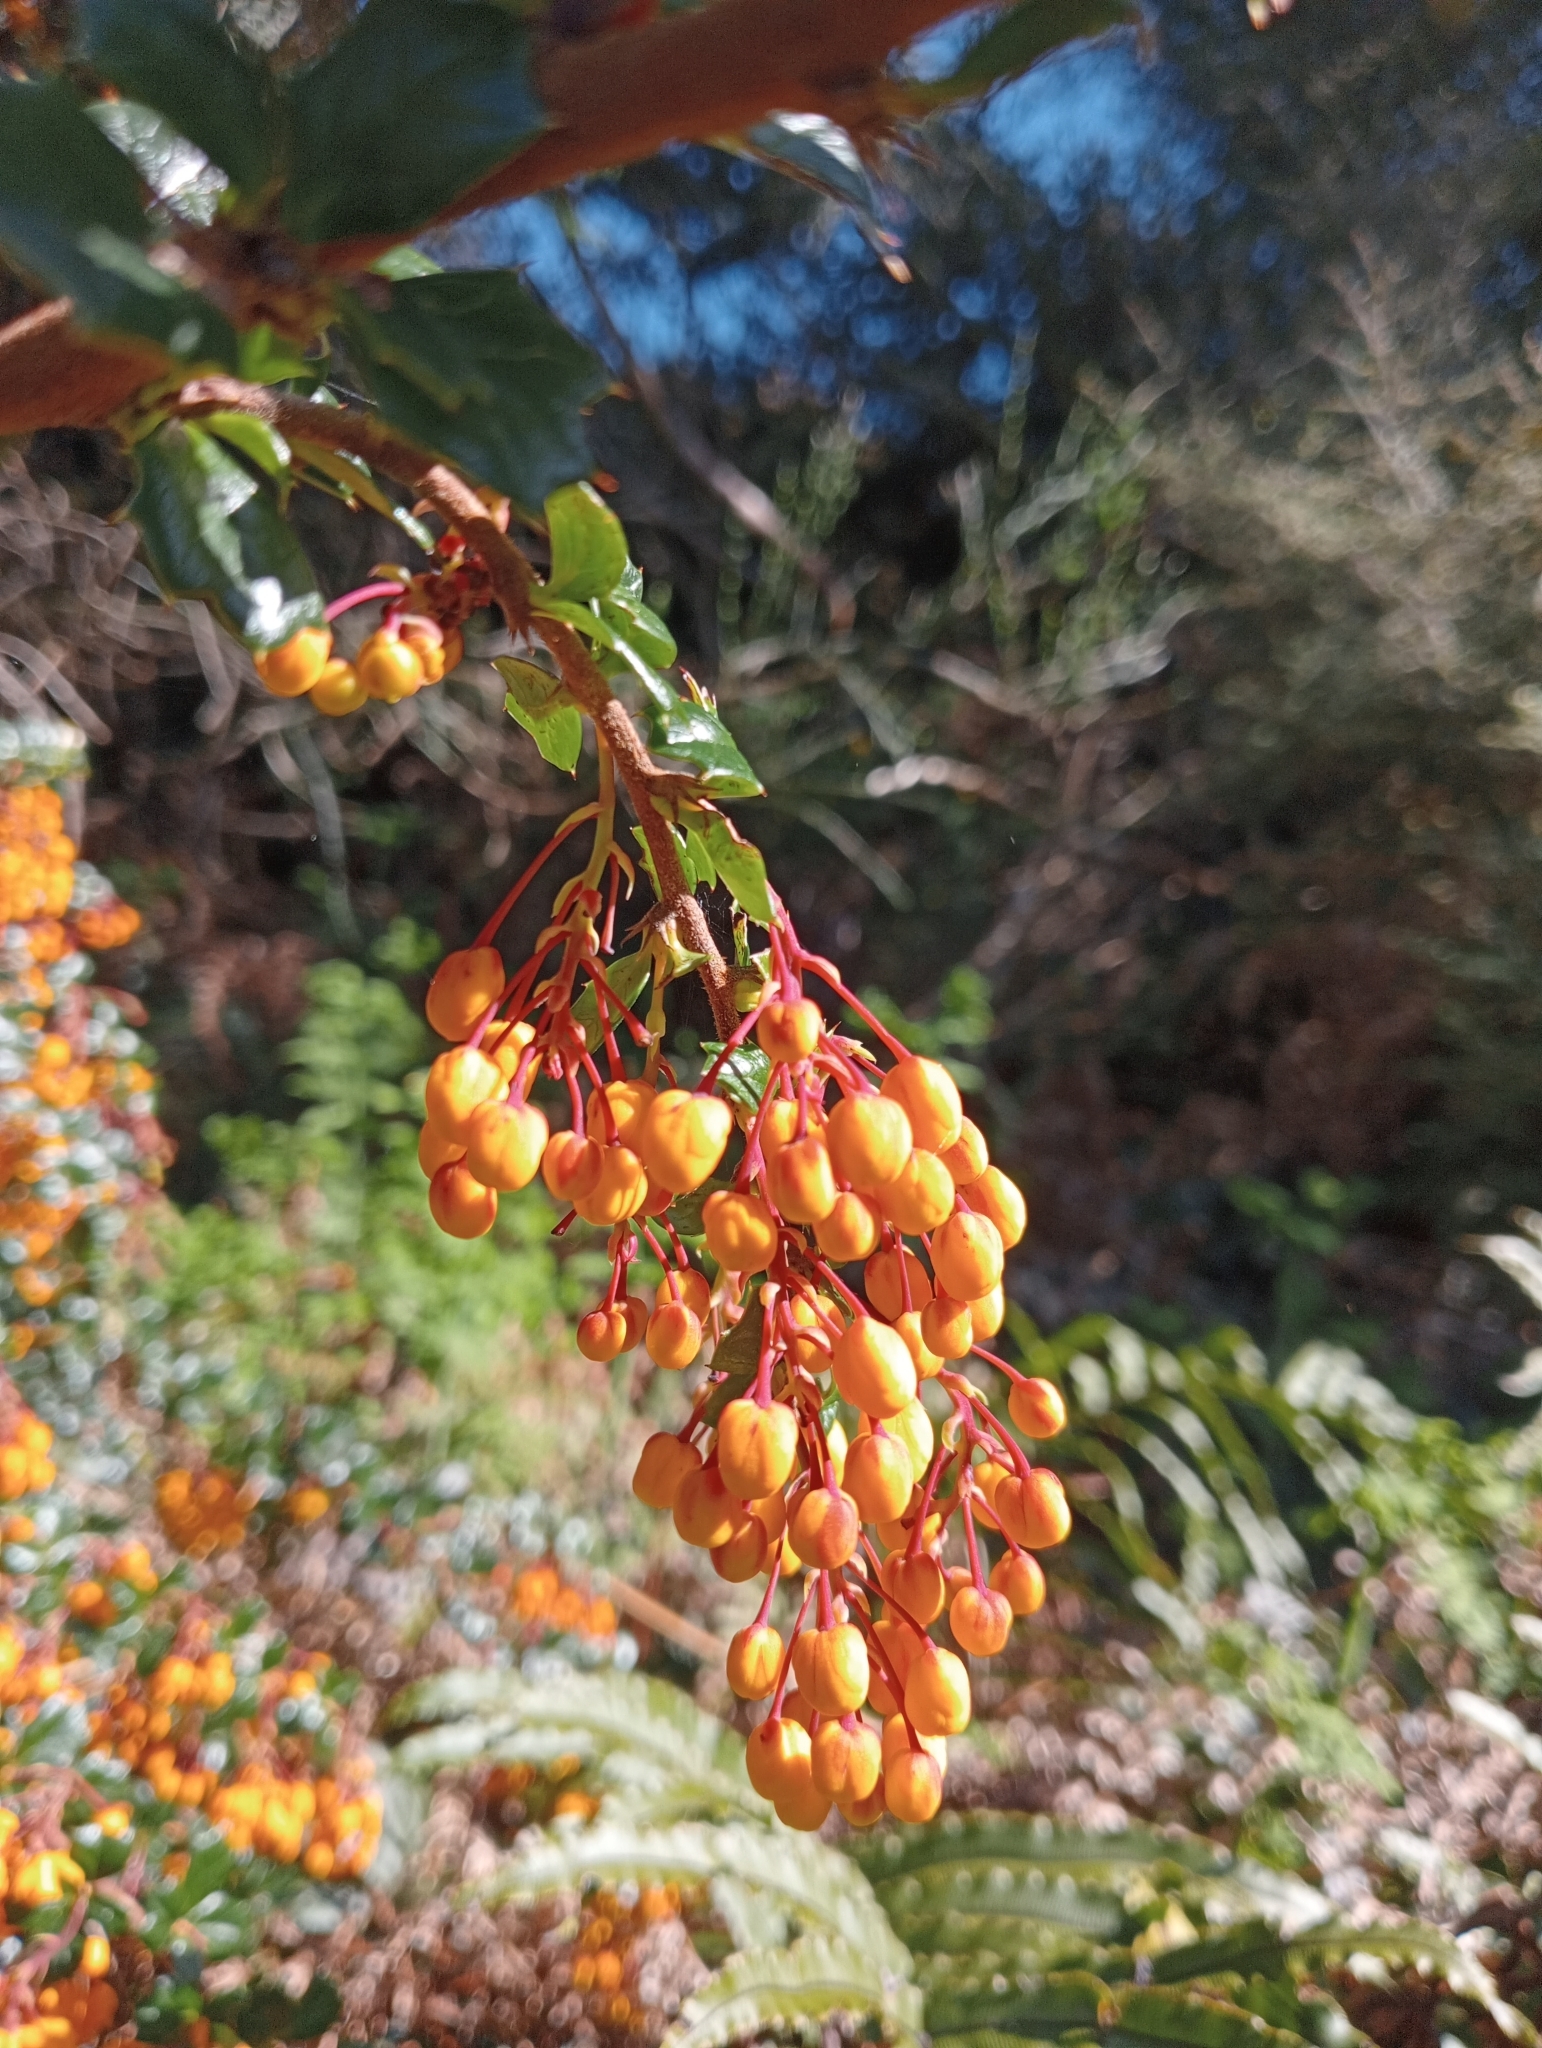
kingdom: Plantae
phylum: Tracheophyta
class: Magnoliopsida
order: Ranunculales
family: Berberidaceae
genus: Berberis
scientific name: Berberis darwinii
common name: Darwin's barberry
